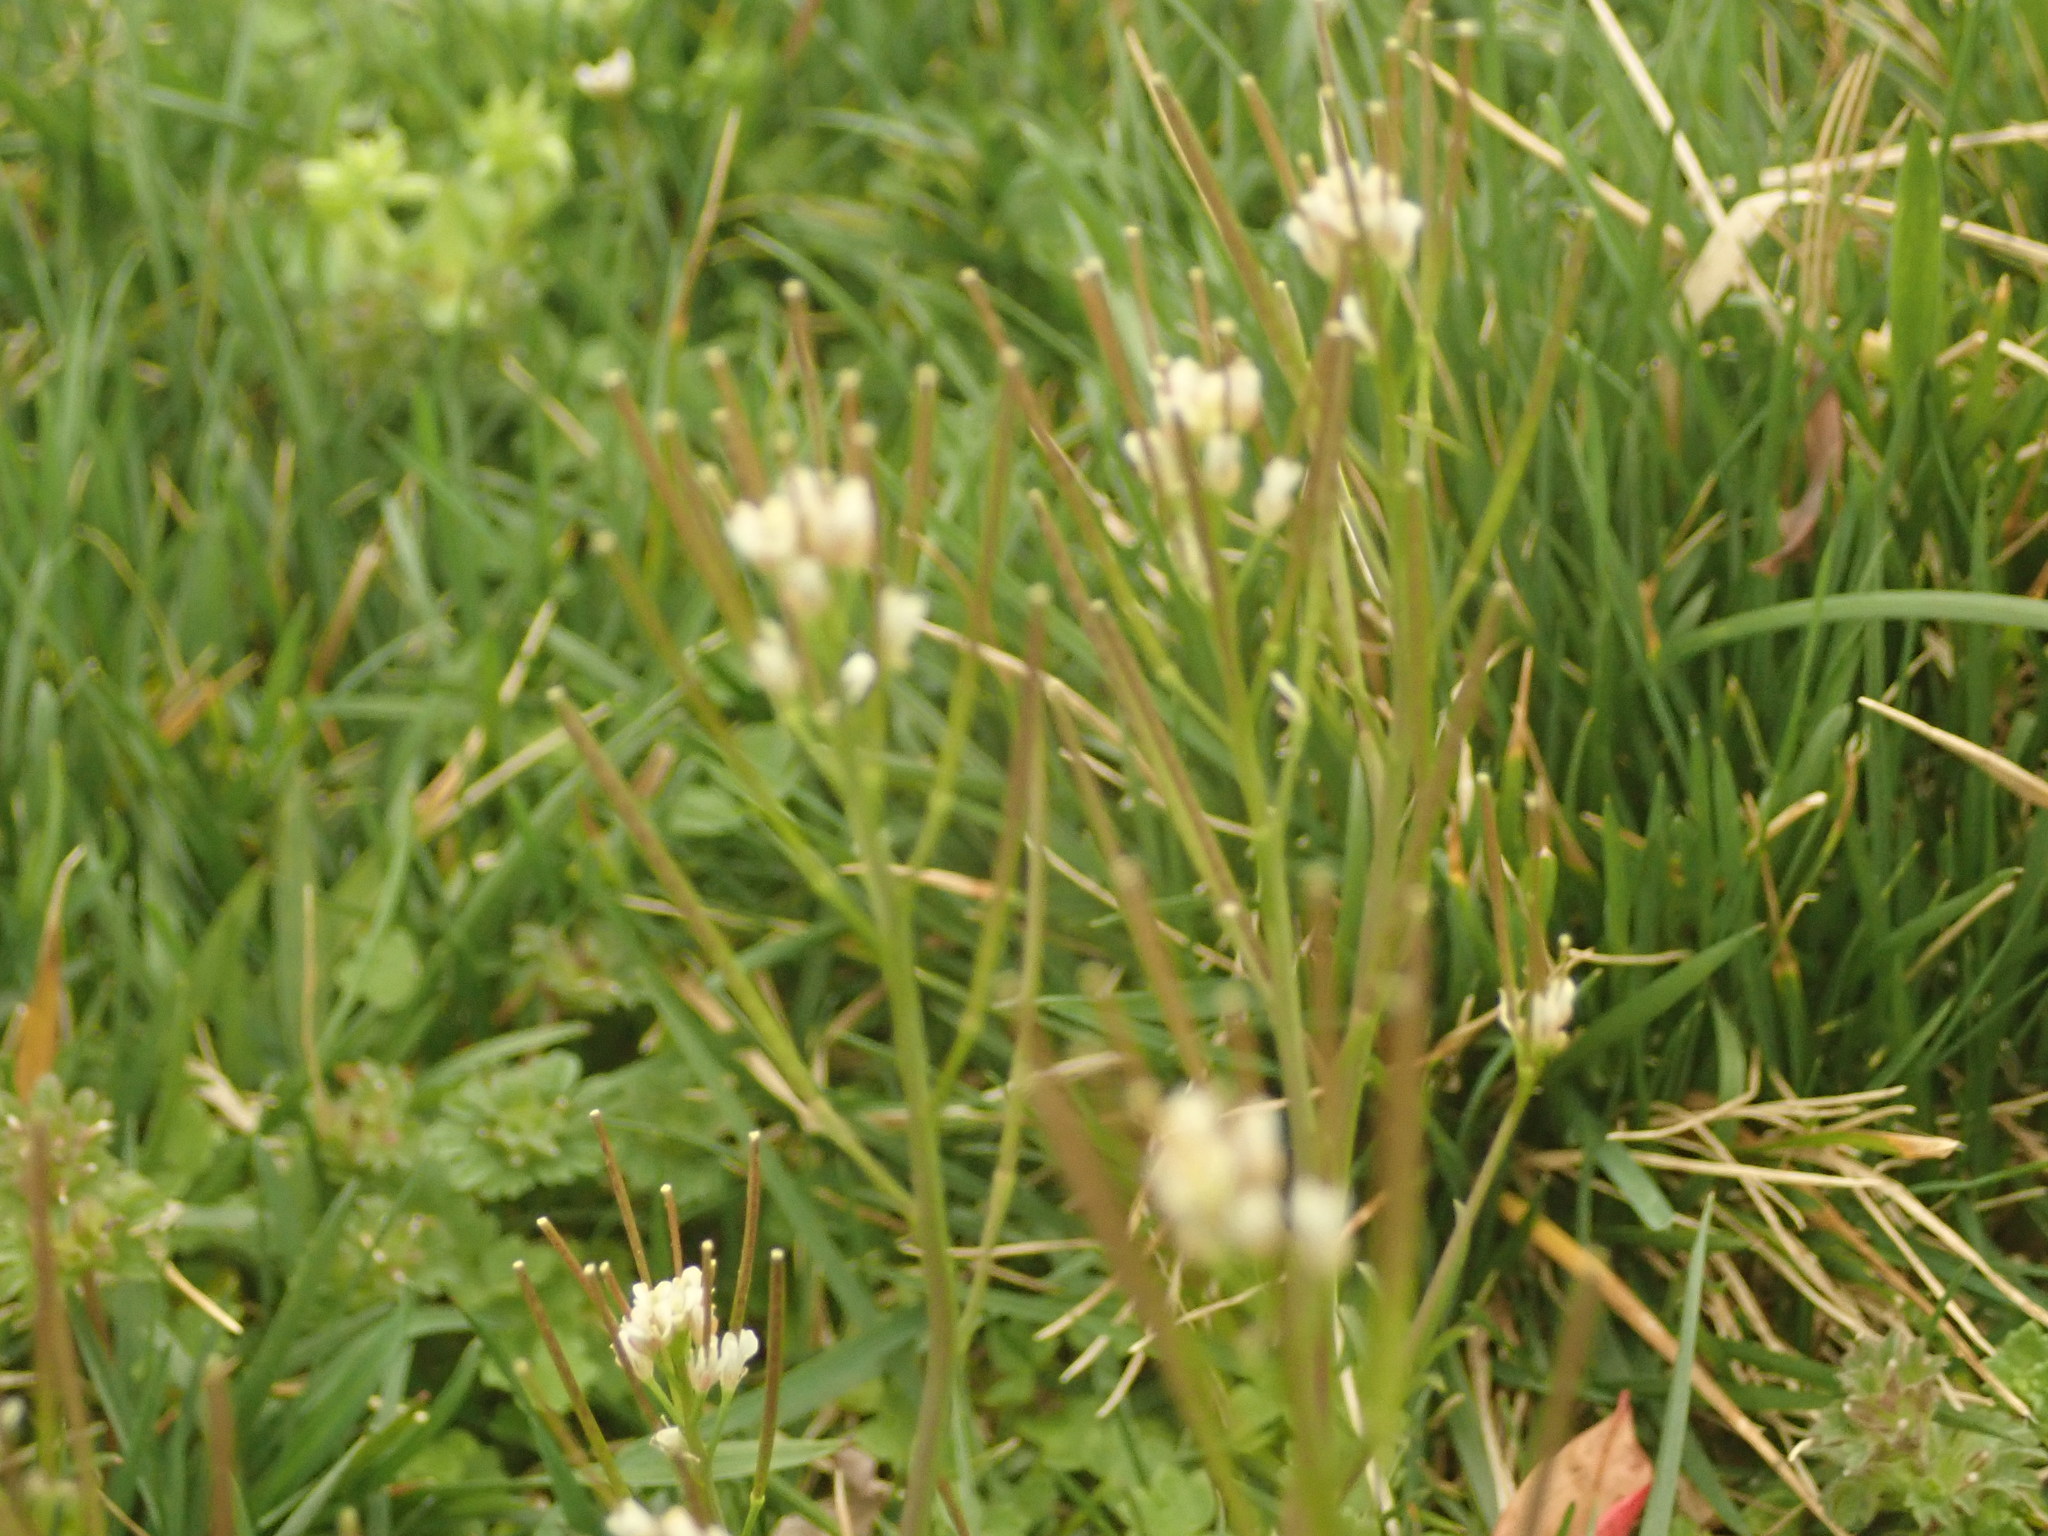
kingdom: Plantae
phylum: Tracheophyta
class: Magnoliopsida
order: Brassicales
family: Brassicaceae
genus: Cardamine
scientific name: Cardamine hirsuta
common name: Hairy bittercress
